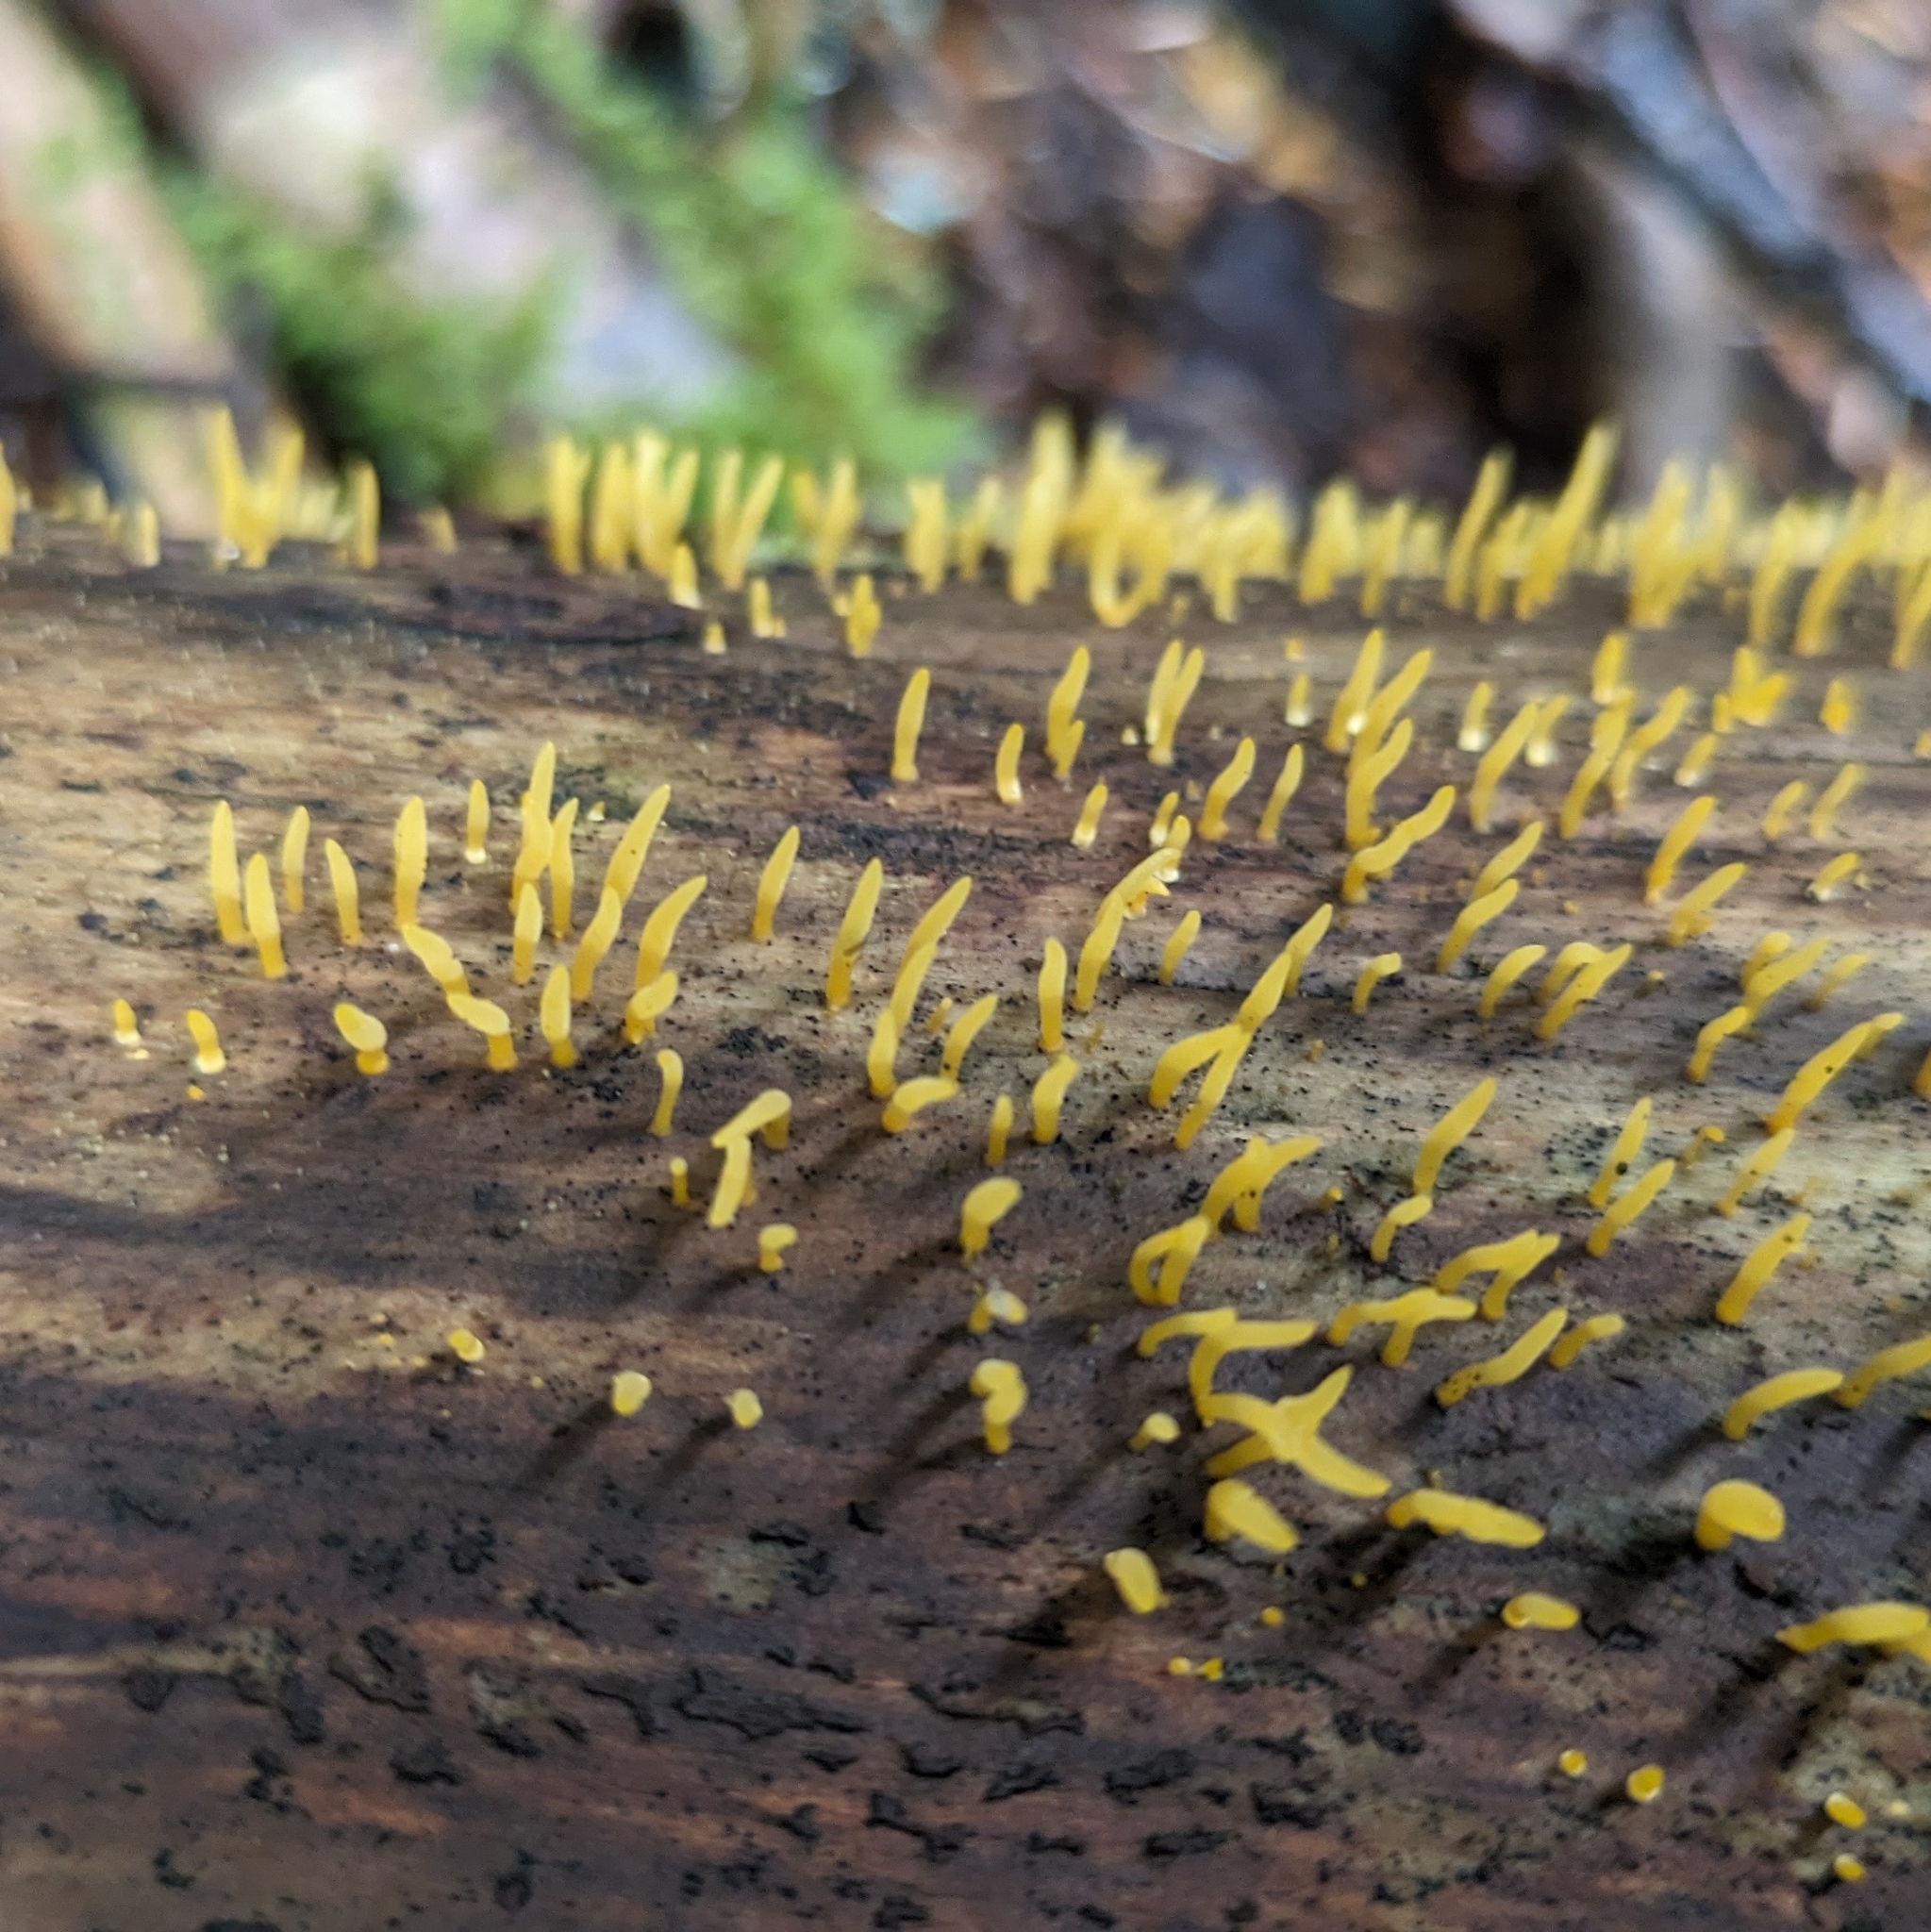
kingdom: Fungi
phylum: Basidiomycota
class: Dacrymycetes
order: Dacrymycetales
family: Dacrymycetaceae
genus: Calocera
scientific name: Calocera cornea
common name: Small stagshorn
